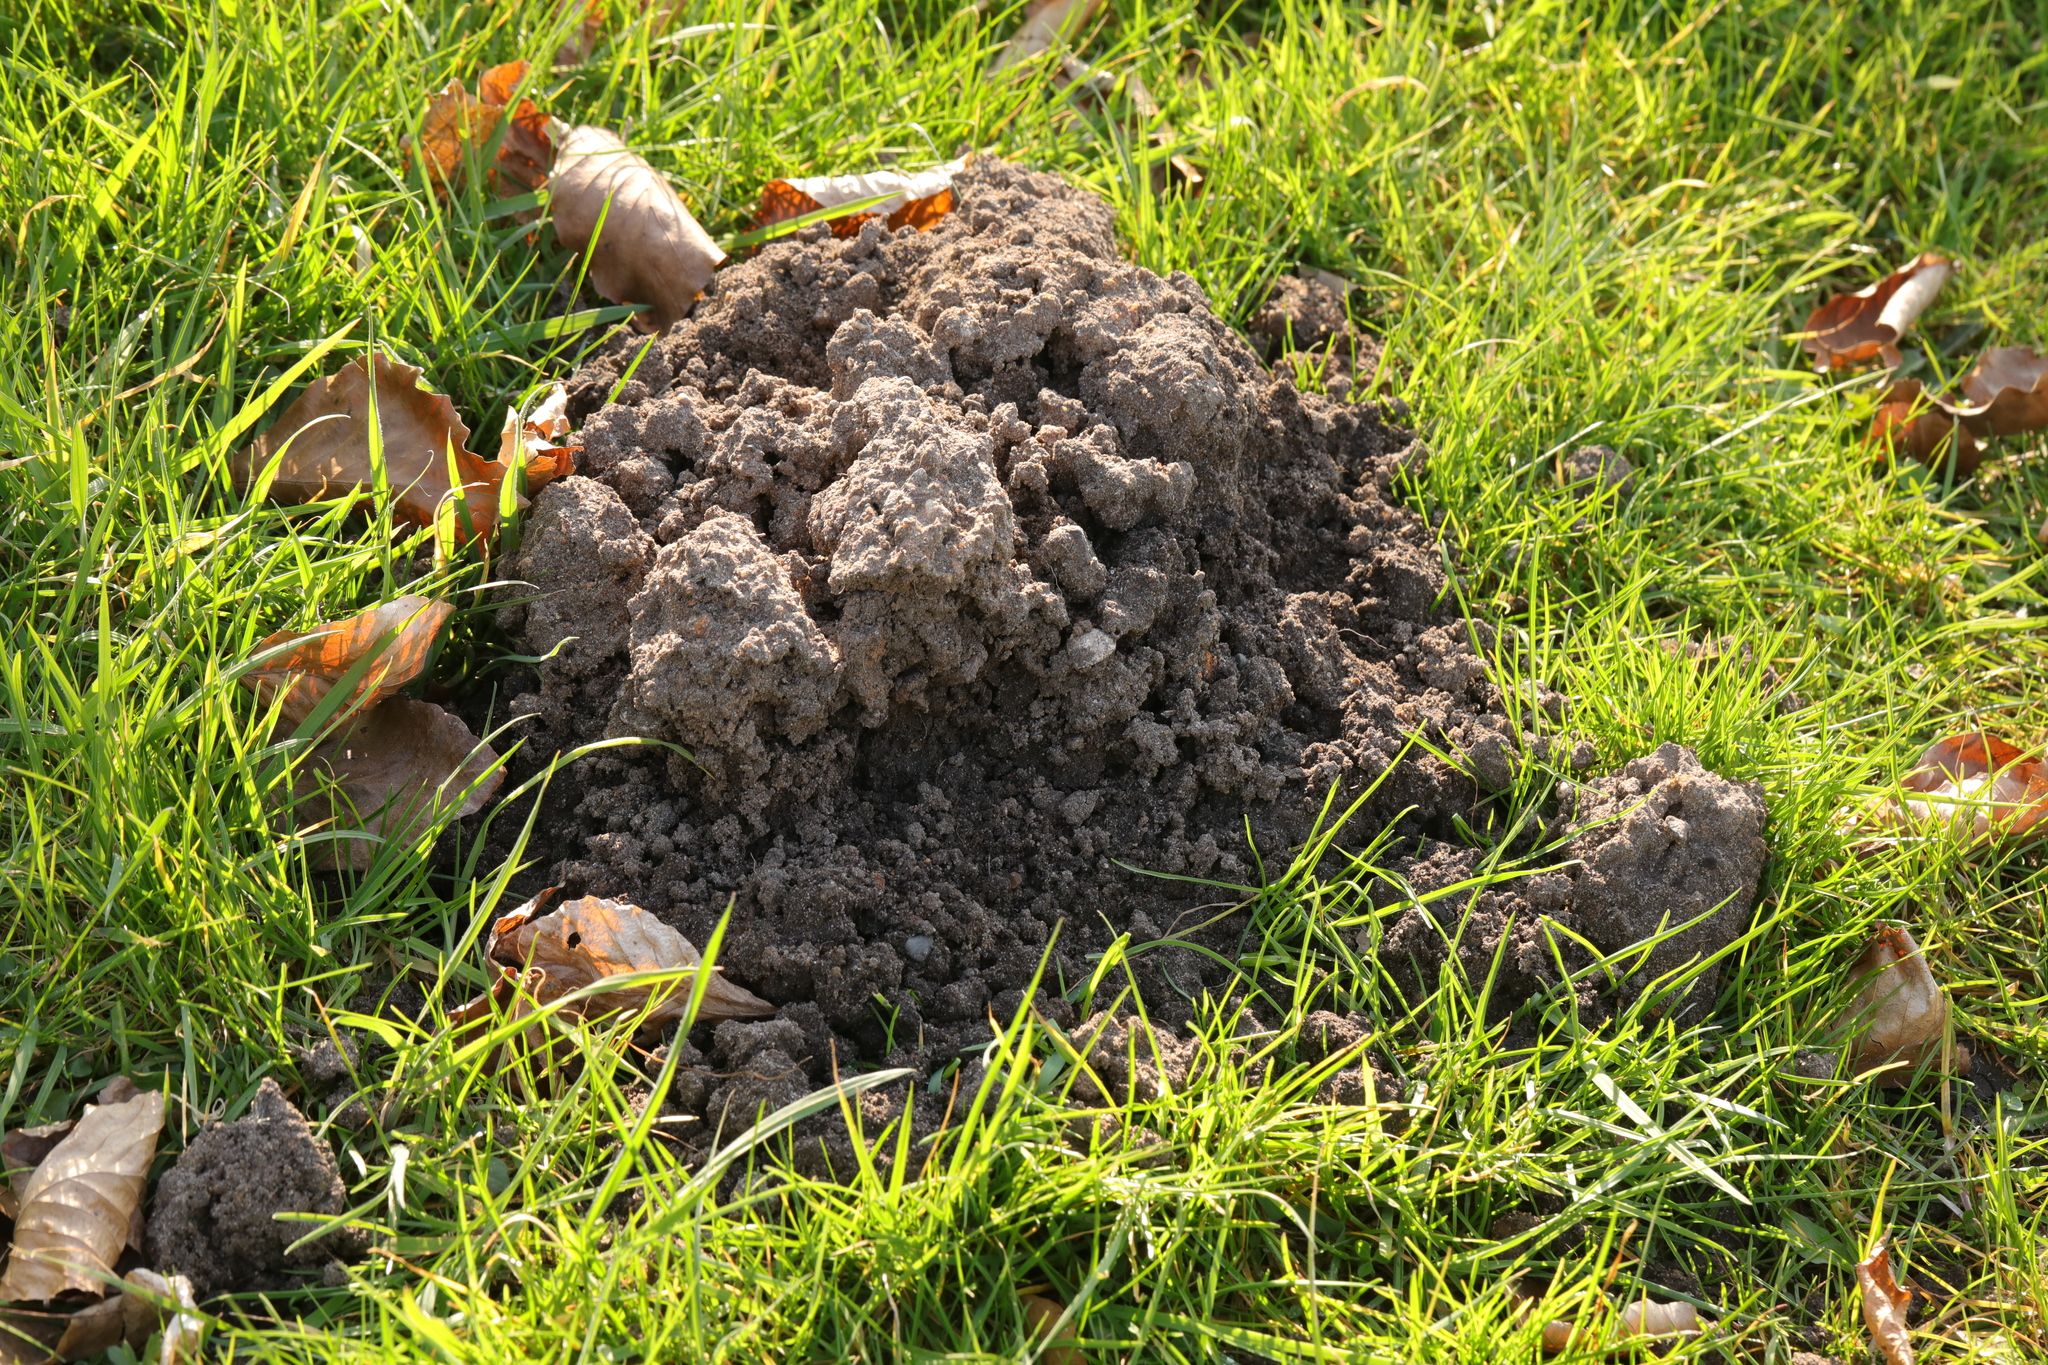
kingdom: Animalia
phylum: Chordata
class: Mammalia
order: Soricomorpha
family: Talpidae
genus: Talpa
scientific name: Talpa europaea
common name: European mole
